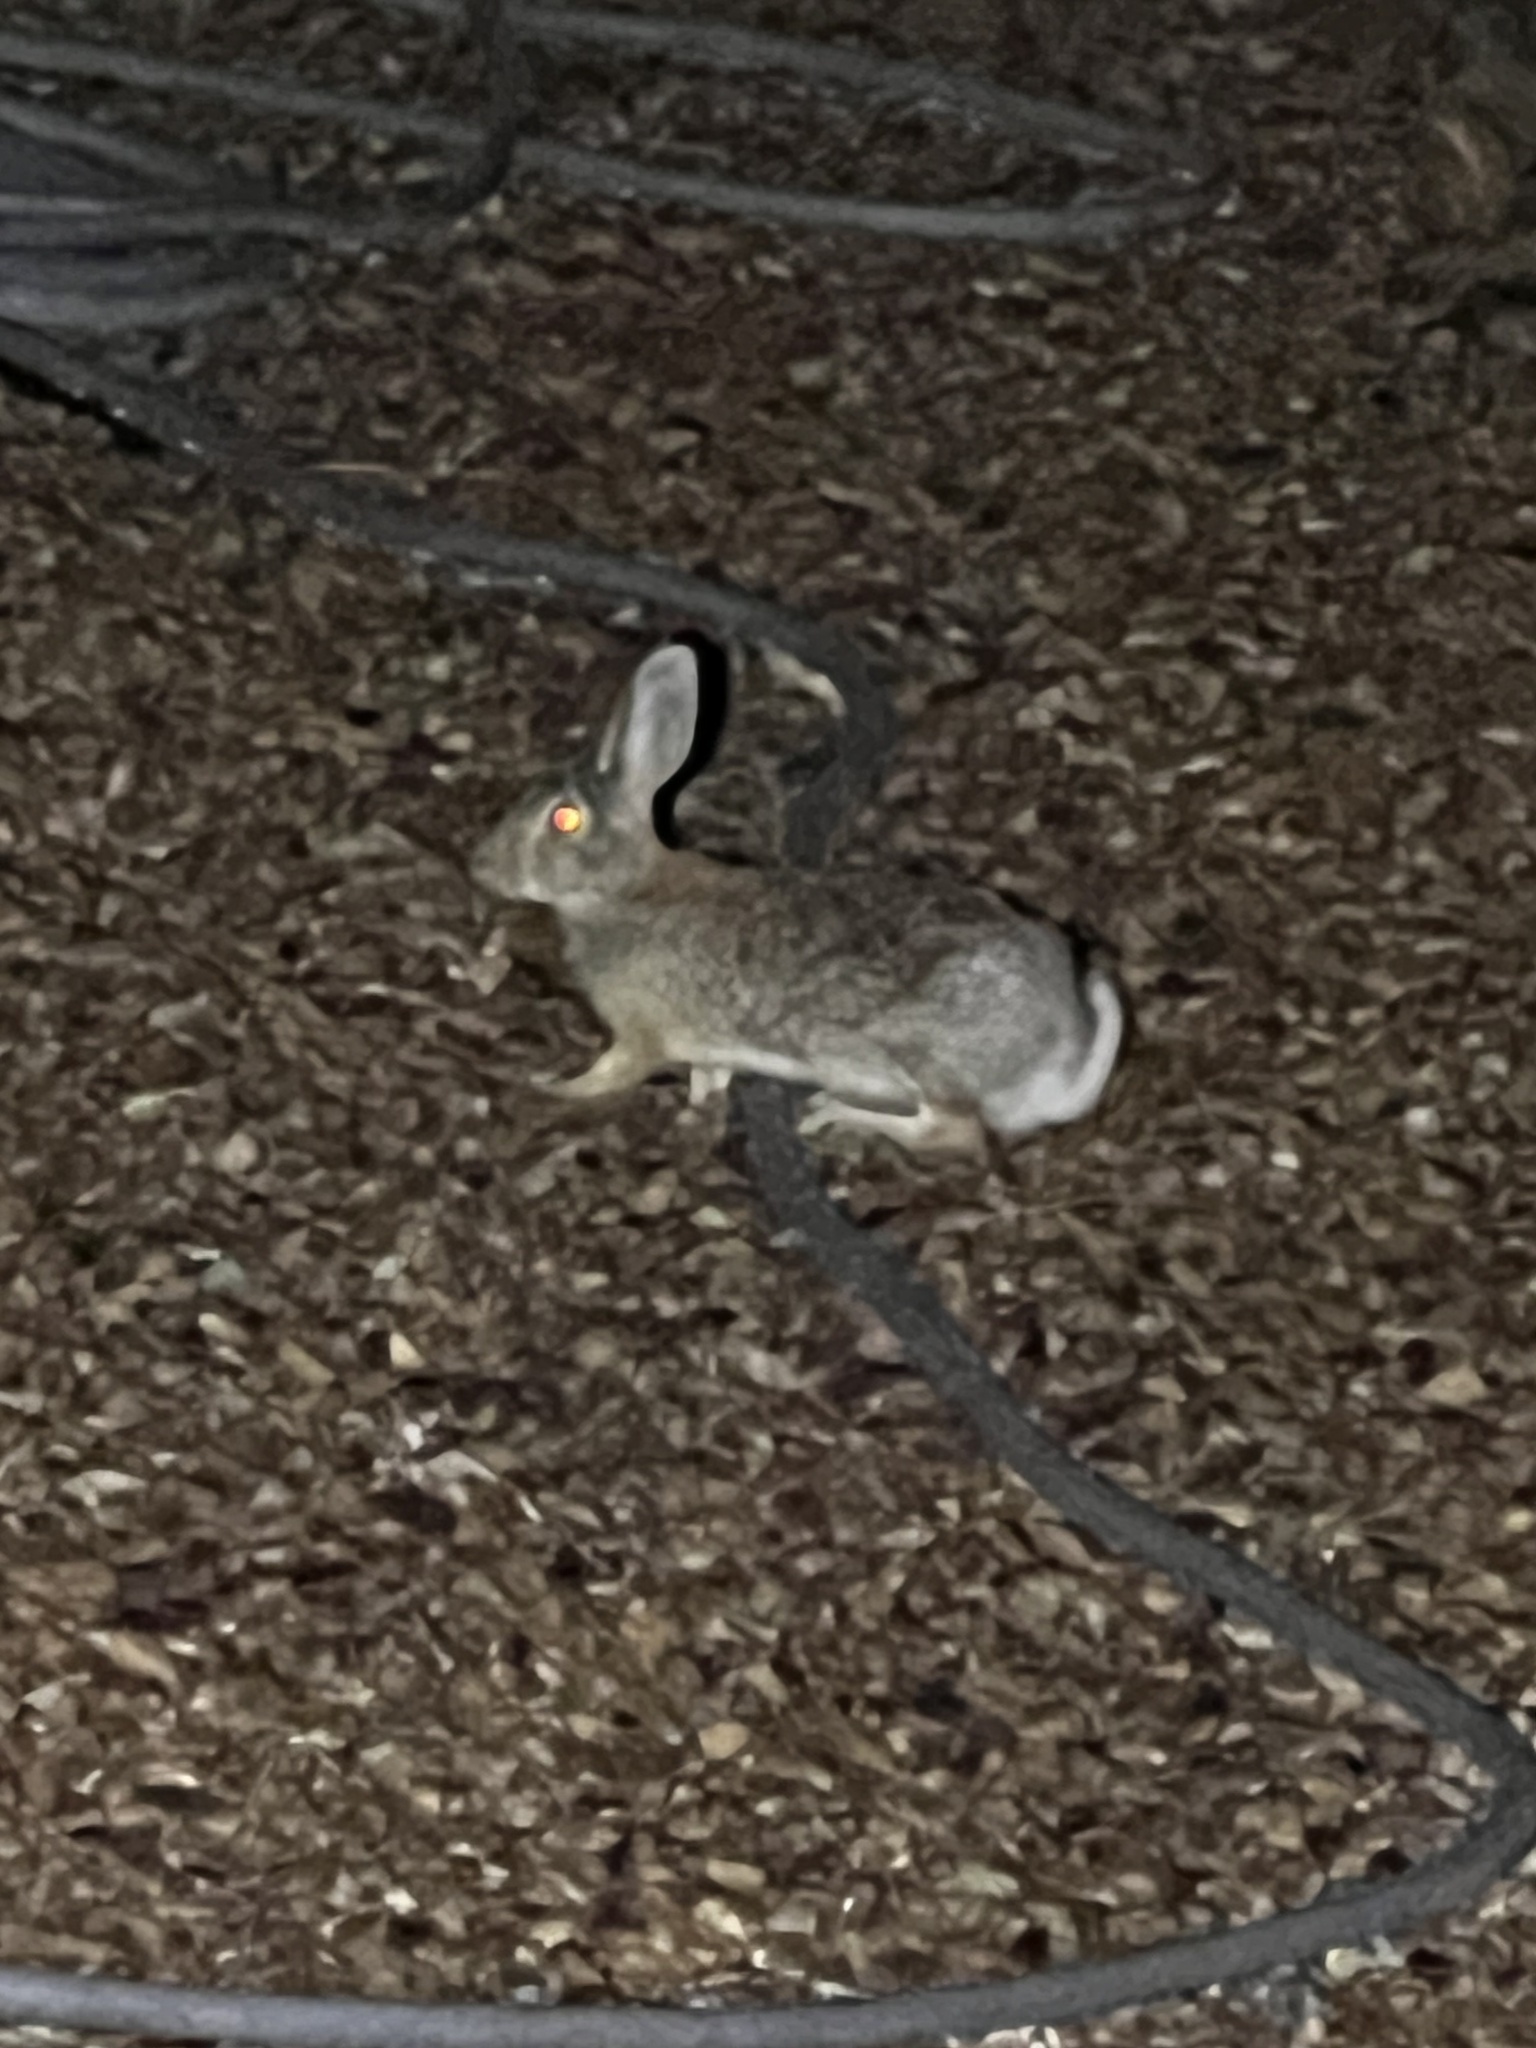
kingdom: Animalia
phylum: Chordata
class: Mammalia
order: Lagomorpha
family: Leporidae
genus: Sylvilagus
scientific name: Sylvilagus audubonii
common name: Desert cottontail
